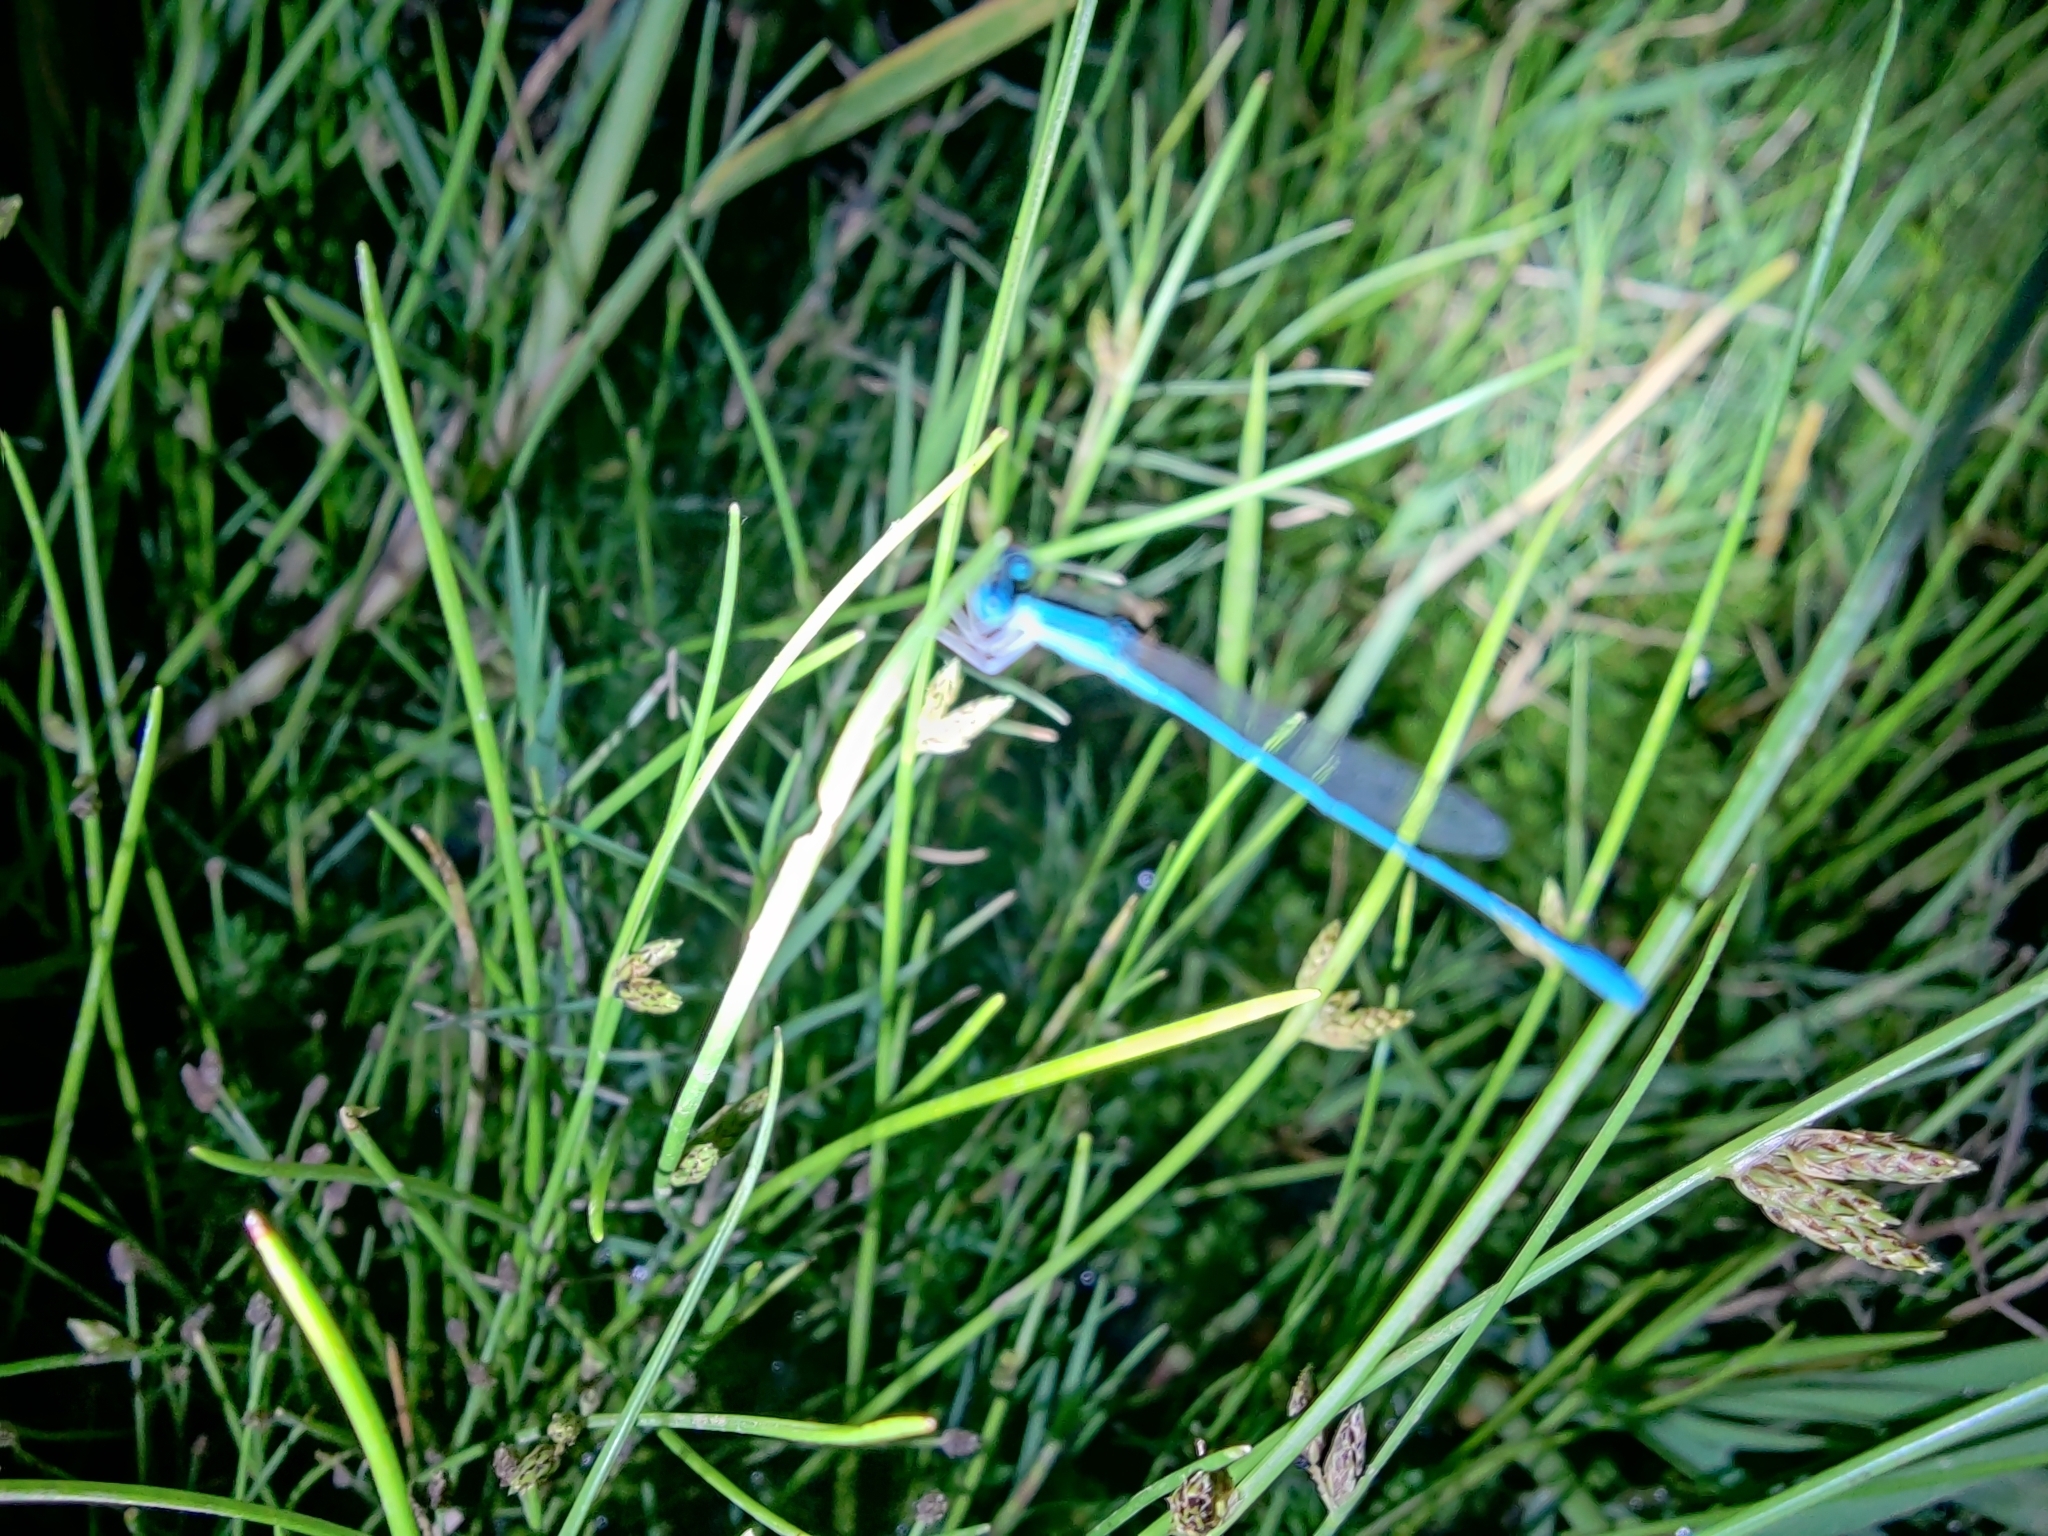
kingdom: Animalia
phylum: Arthropoda
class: Insecta
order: Odonata
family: Coenagrionidae
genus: Amphiallagma
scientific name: Amphiallagma parvum
